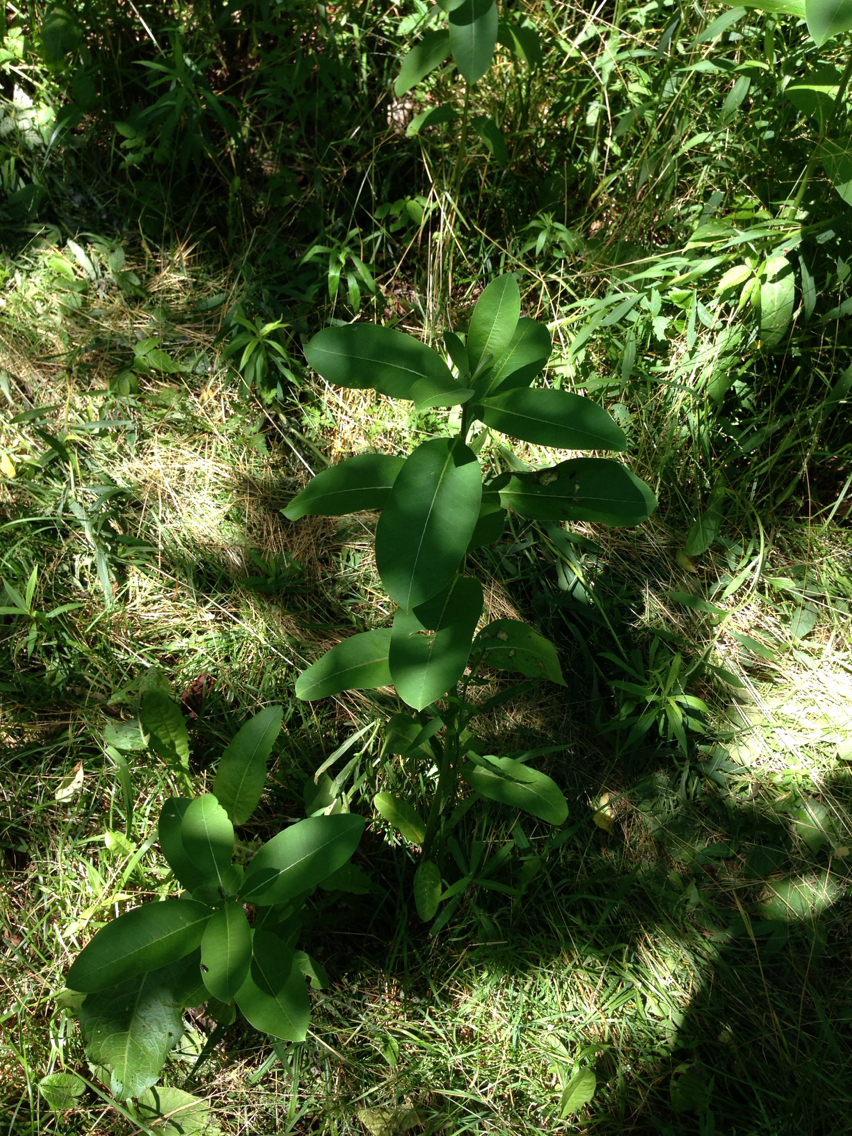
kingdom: Plantae
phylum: Tracheophyta
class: Magnoliopsida
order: Gentianales
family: Apocynaceae
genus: Asclepias
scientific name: Asclepias syriaca
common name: Common milkweed
